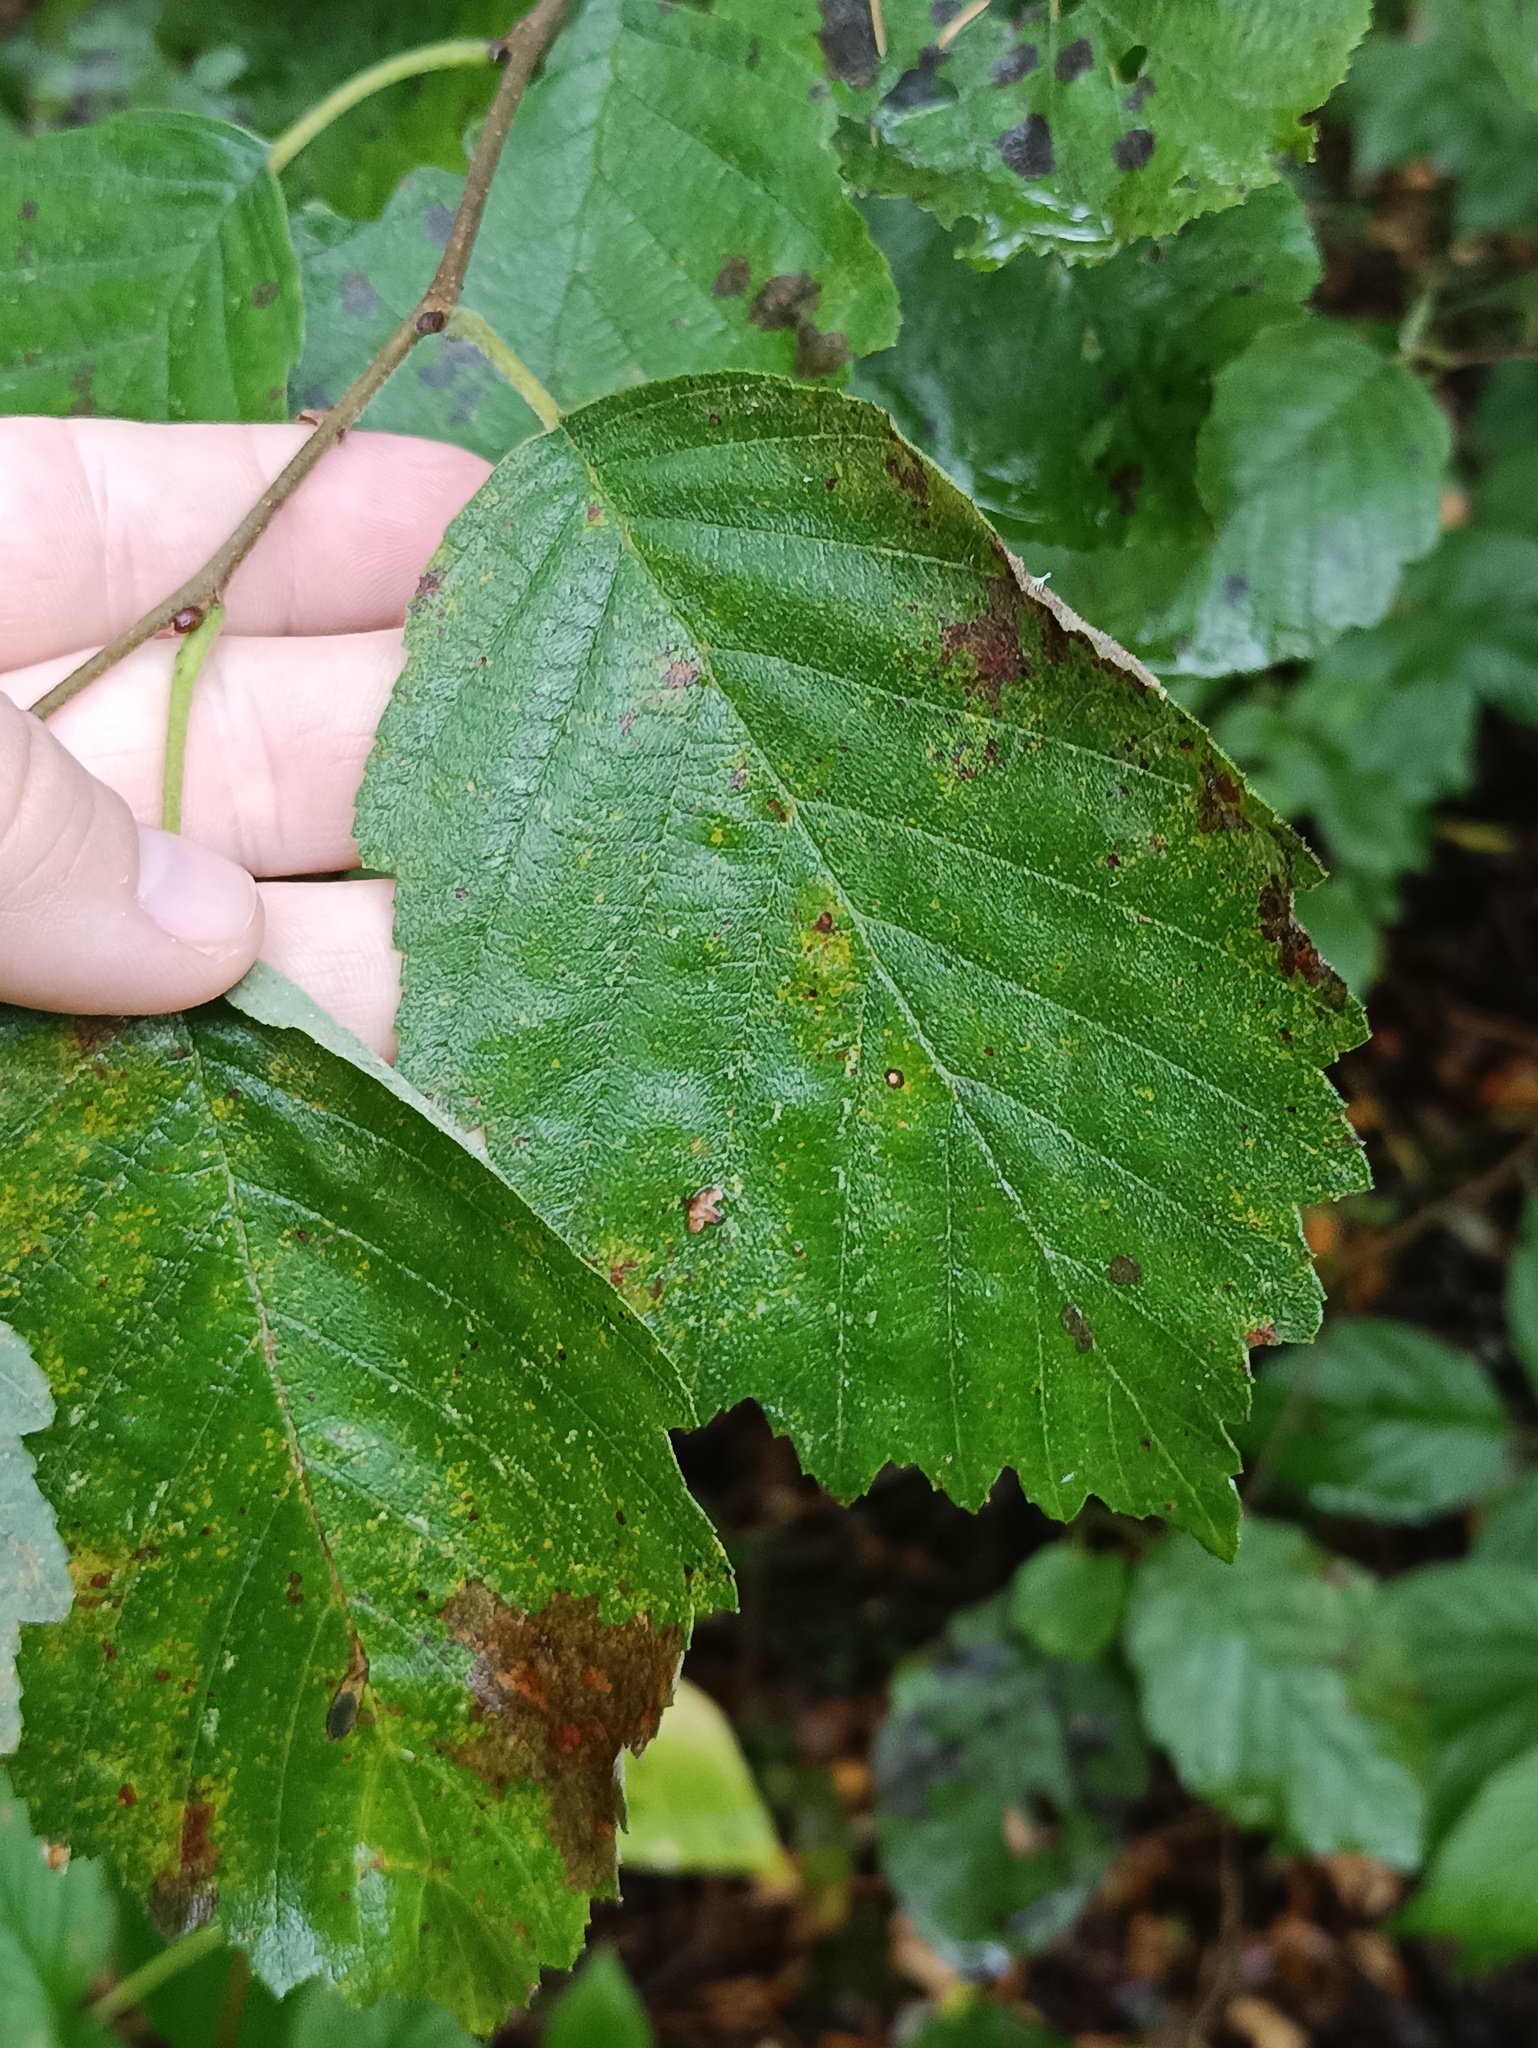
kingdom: Plantae
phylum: Tracheophyta
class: Magnoliopsida
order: Fagales
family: Betulaceae
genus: Alnus
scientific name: Alnus incana
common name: Grey alder
